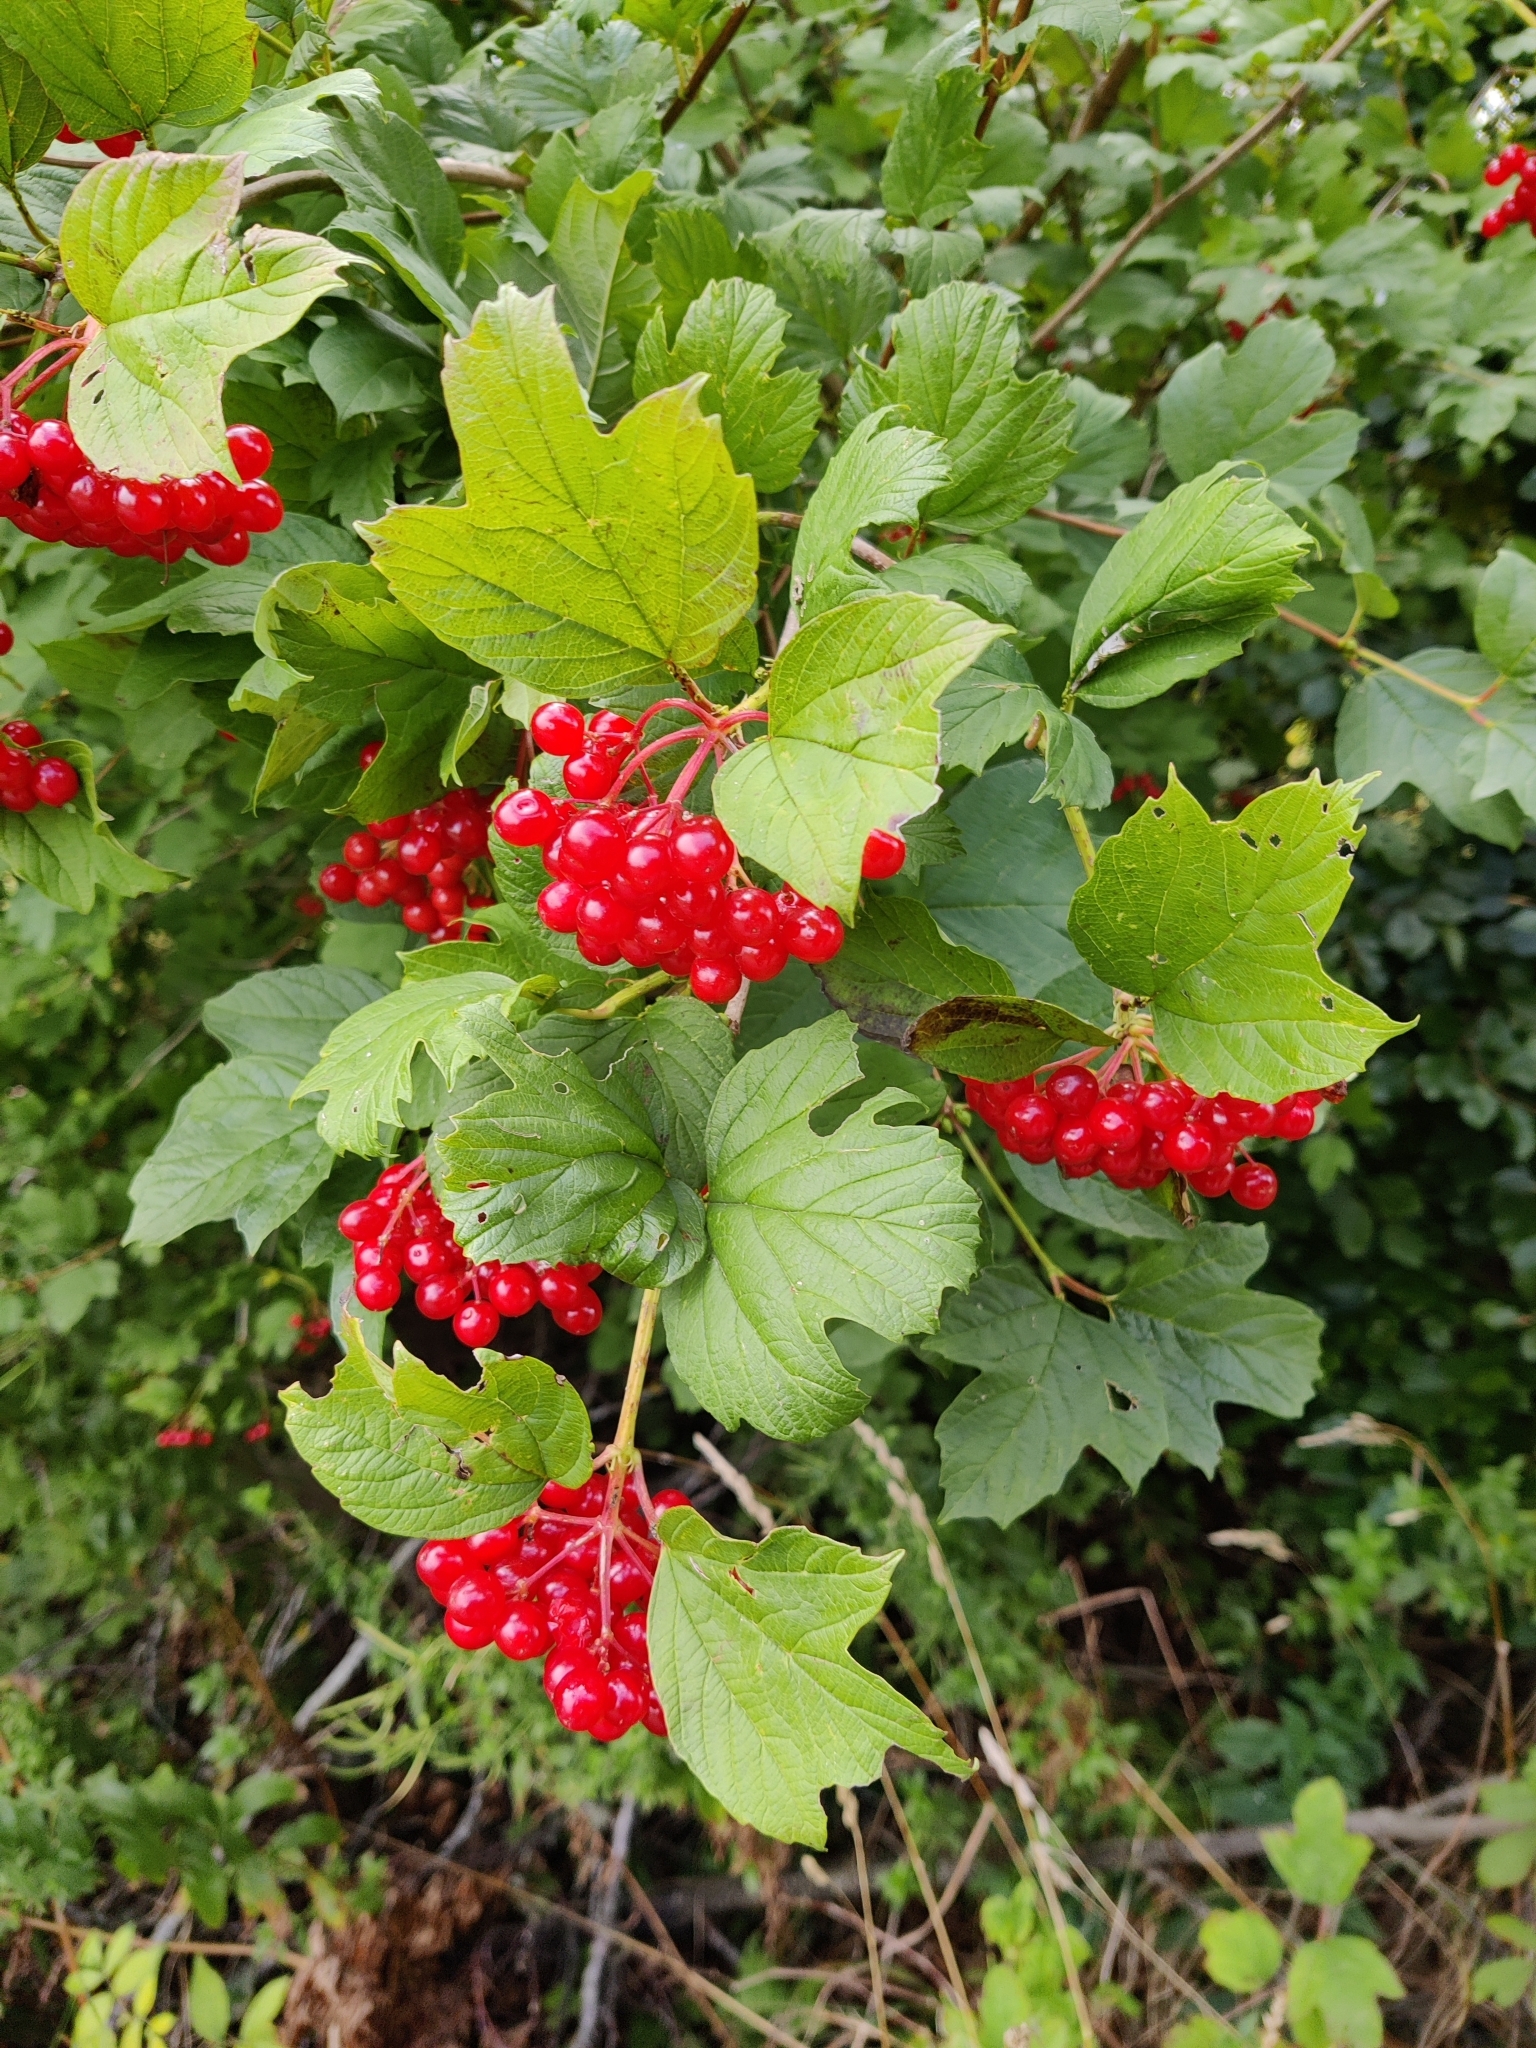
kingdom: Plantae
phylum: Tracheophyta
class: Magnoliopsida
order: Dipsacales
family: Viburnaceae
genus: Viburnum
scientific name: Viburnum opulus
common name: Guelder-rose
